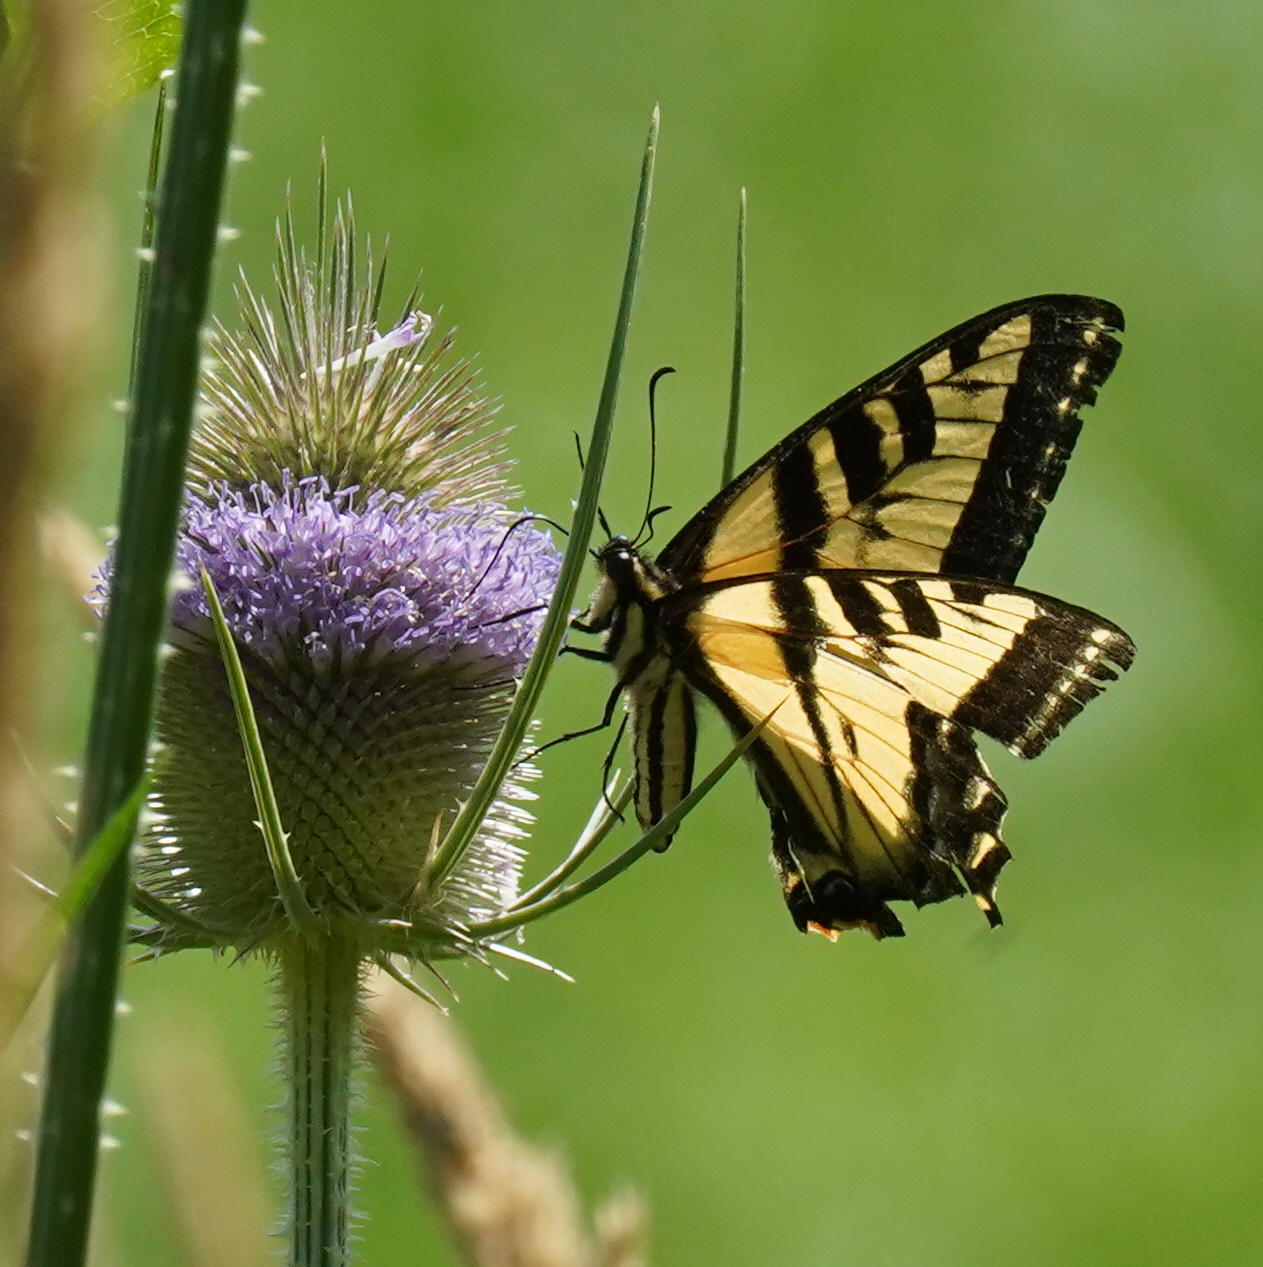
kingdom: Animalia
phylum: Arthropoda
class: Insecta
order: Lepidoptera
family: Papilionidae
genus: Papilio
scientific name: Papilio rutulus
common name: Western tiger swallowtail
